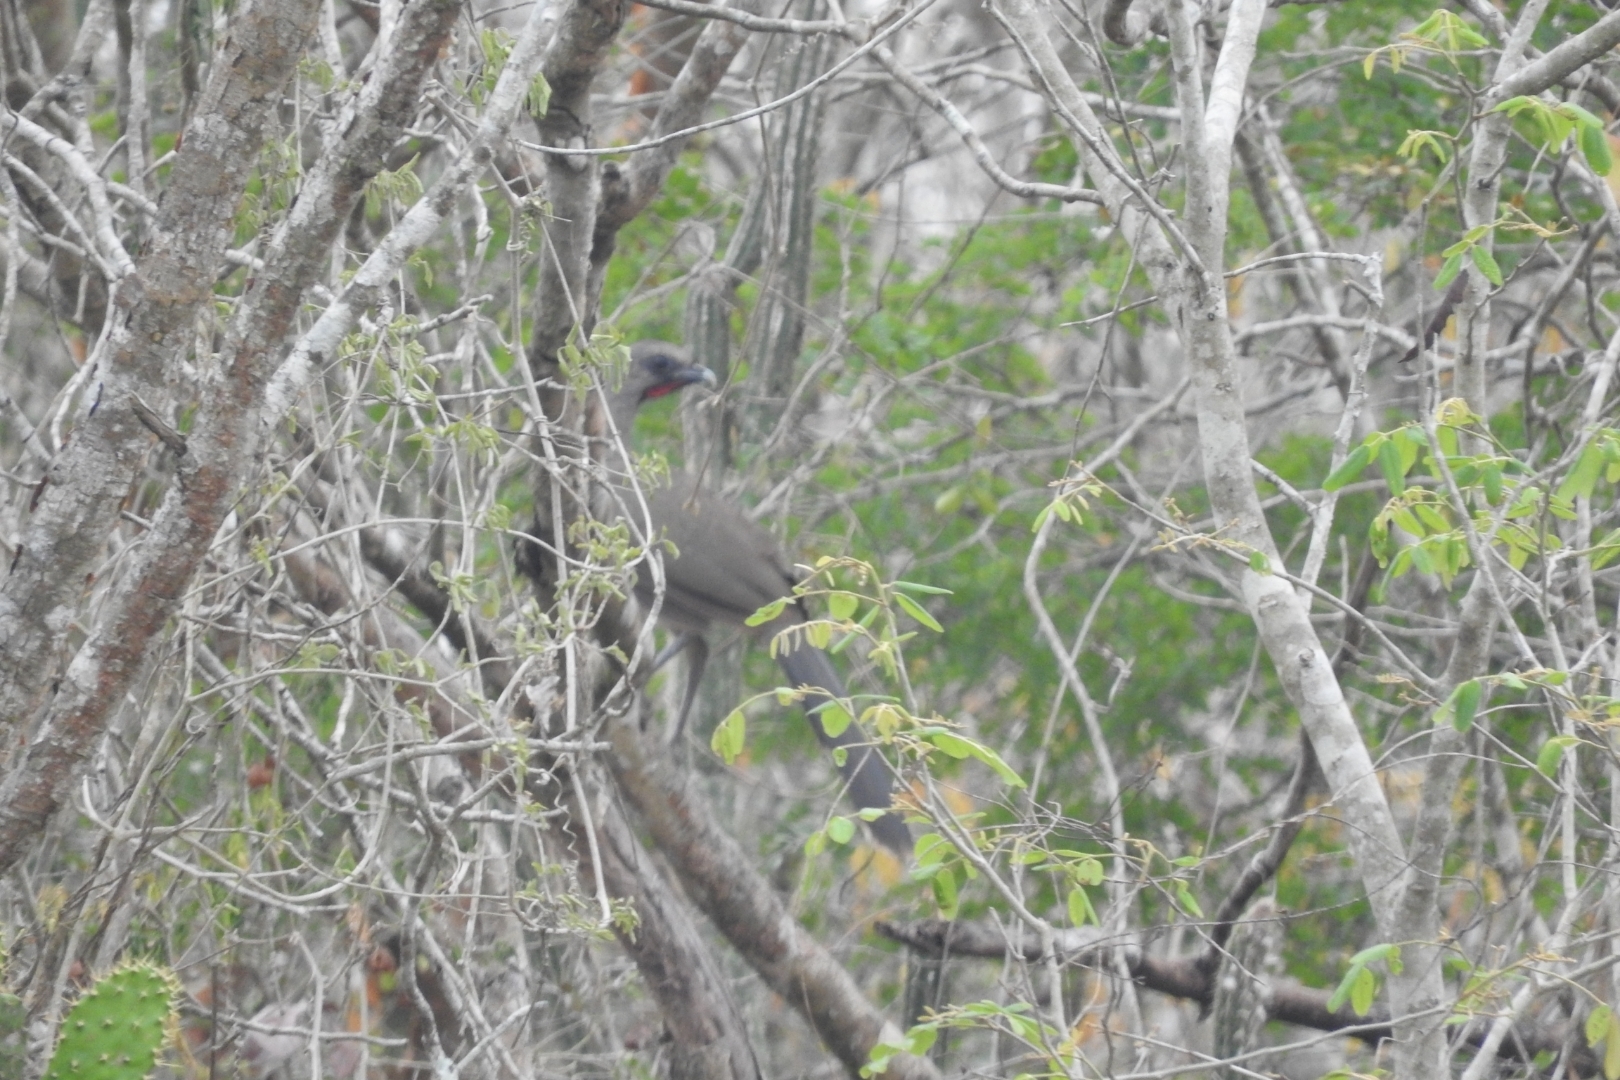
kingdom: Animalia
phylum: Chordata
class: Aves
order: Galliformes
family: Cracidae
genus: Ortalis
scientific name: Ortalis vetula
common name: Plain chachalaca
